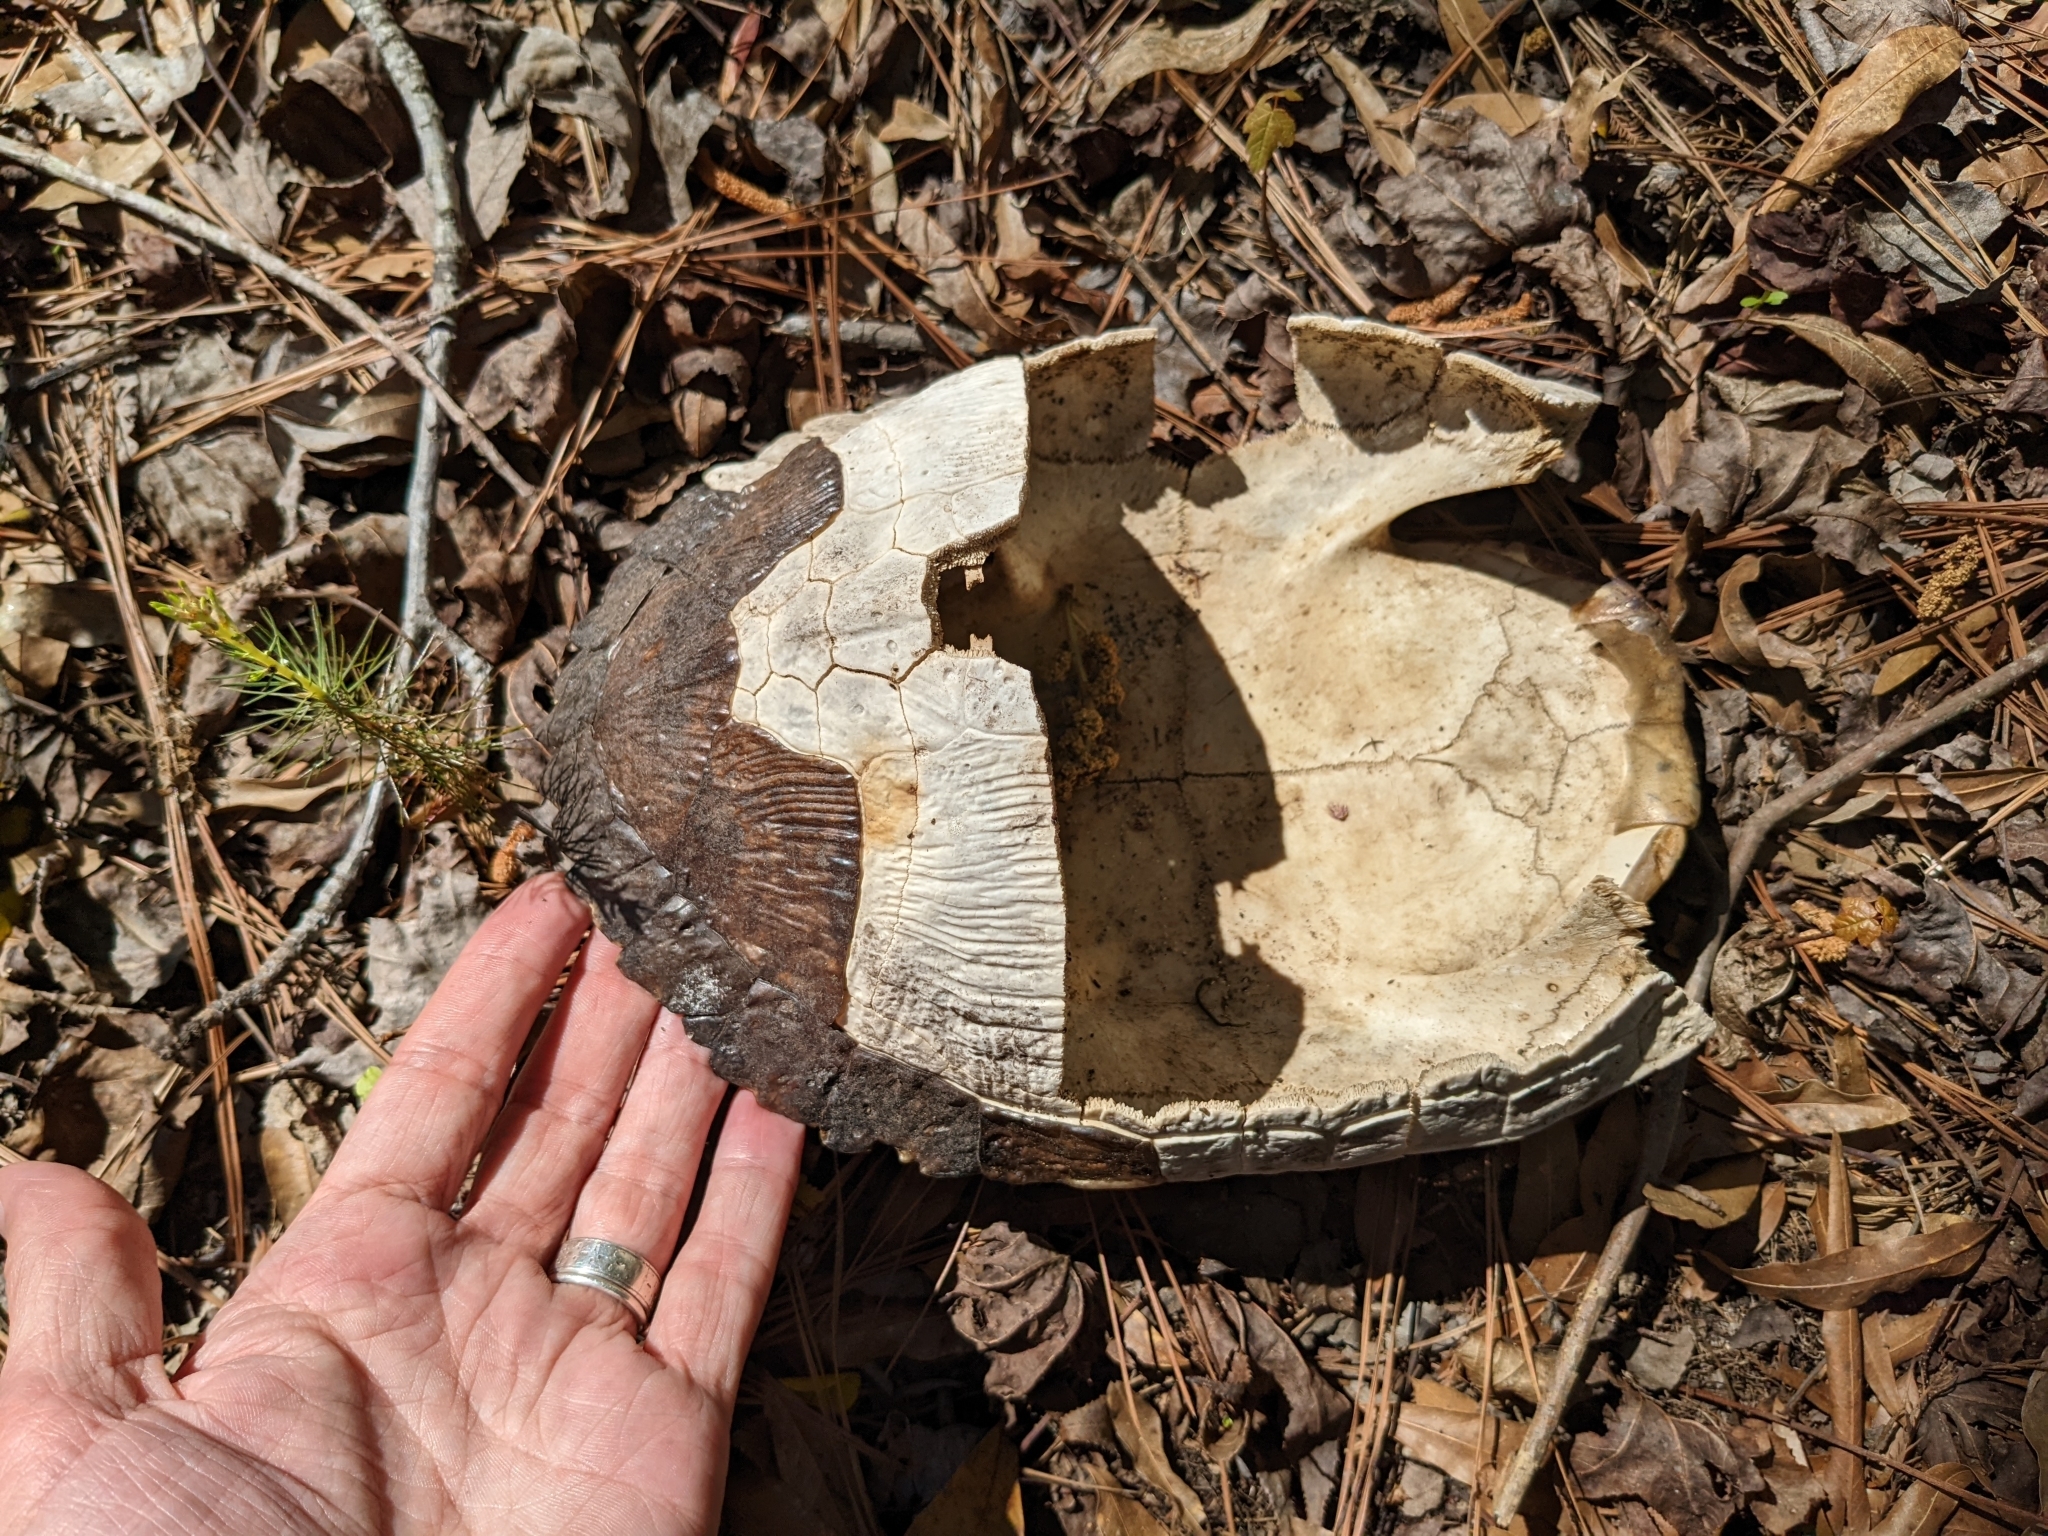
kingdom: Animalia
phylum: Chordata
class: Testudines
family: Emydidae
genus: Trachemys
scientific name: Trachemys scripta
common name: Slider
